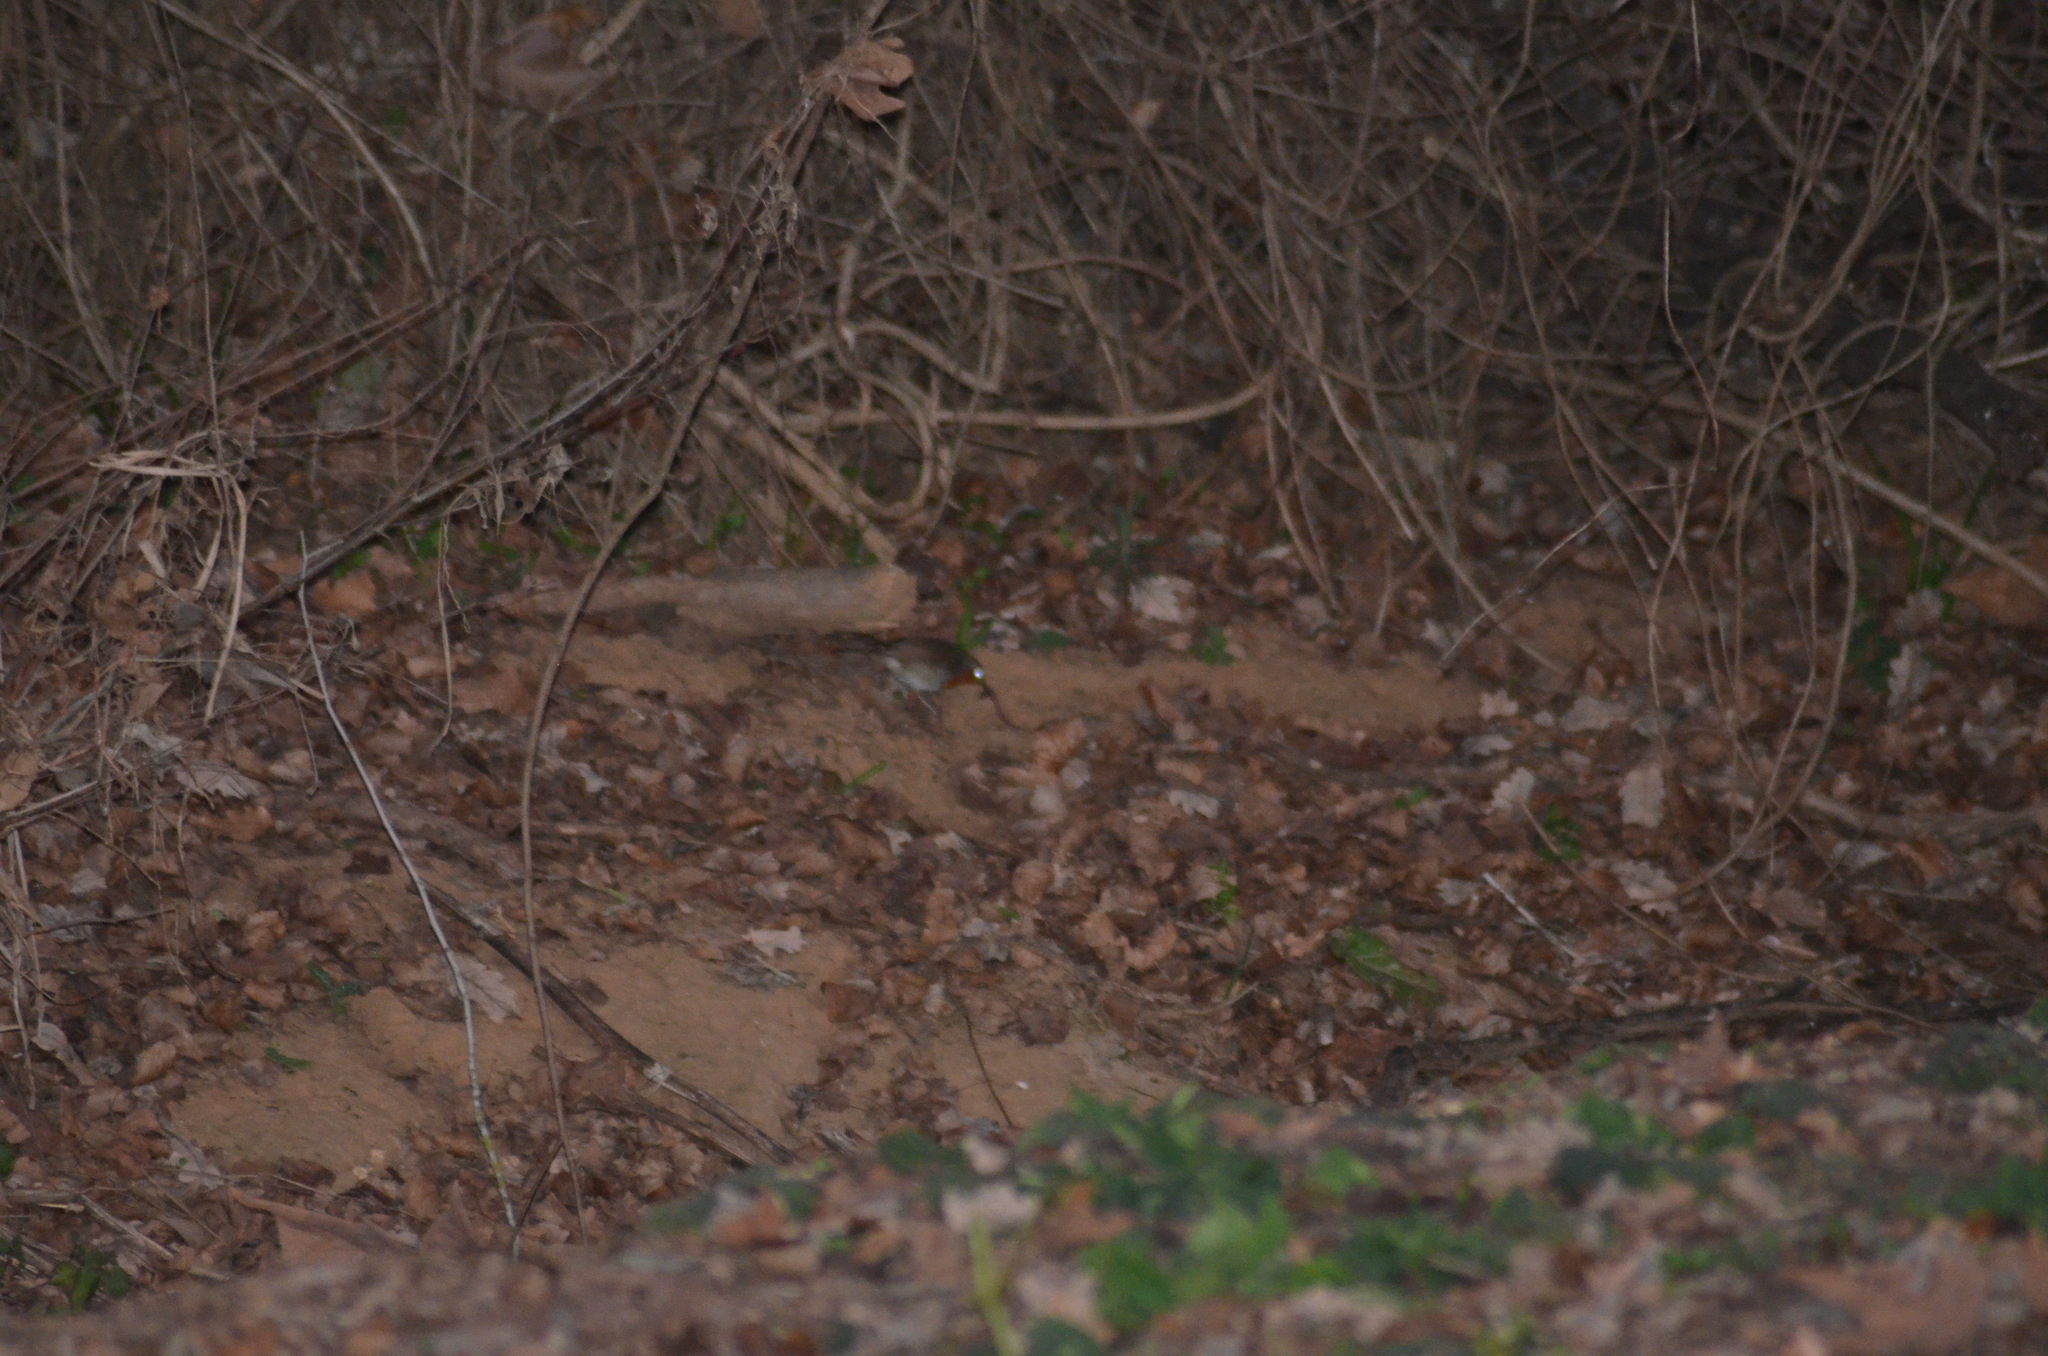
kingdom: Animalia
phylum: Chordata
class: Aves
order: Passeriformes
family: Muscicapidae
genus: Erithacus
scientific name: Erithacus rubecula
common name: European robin
